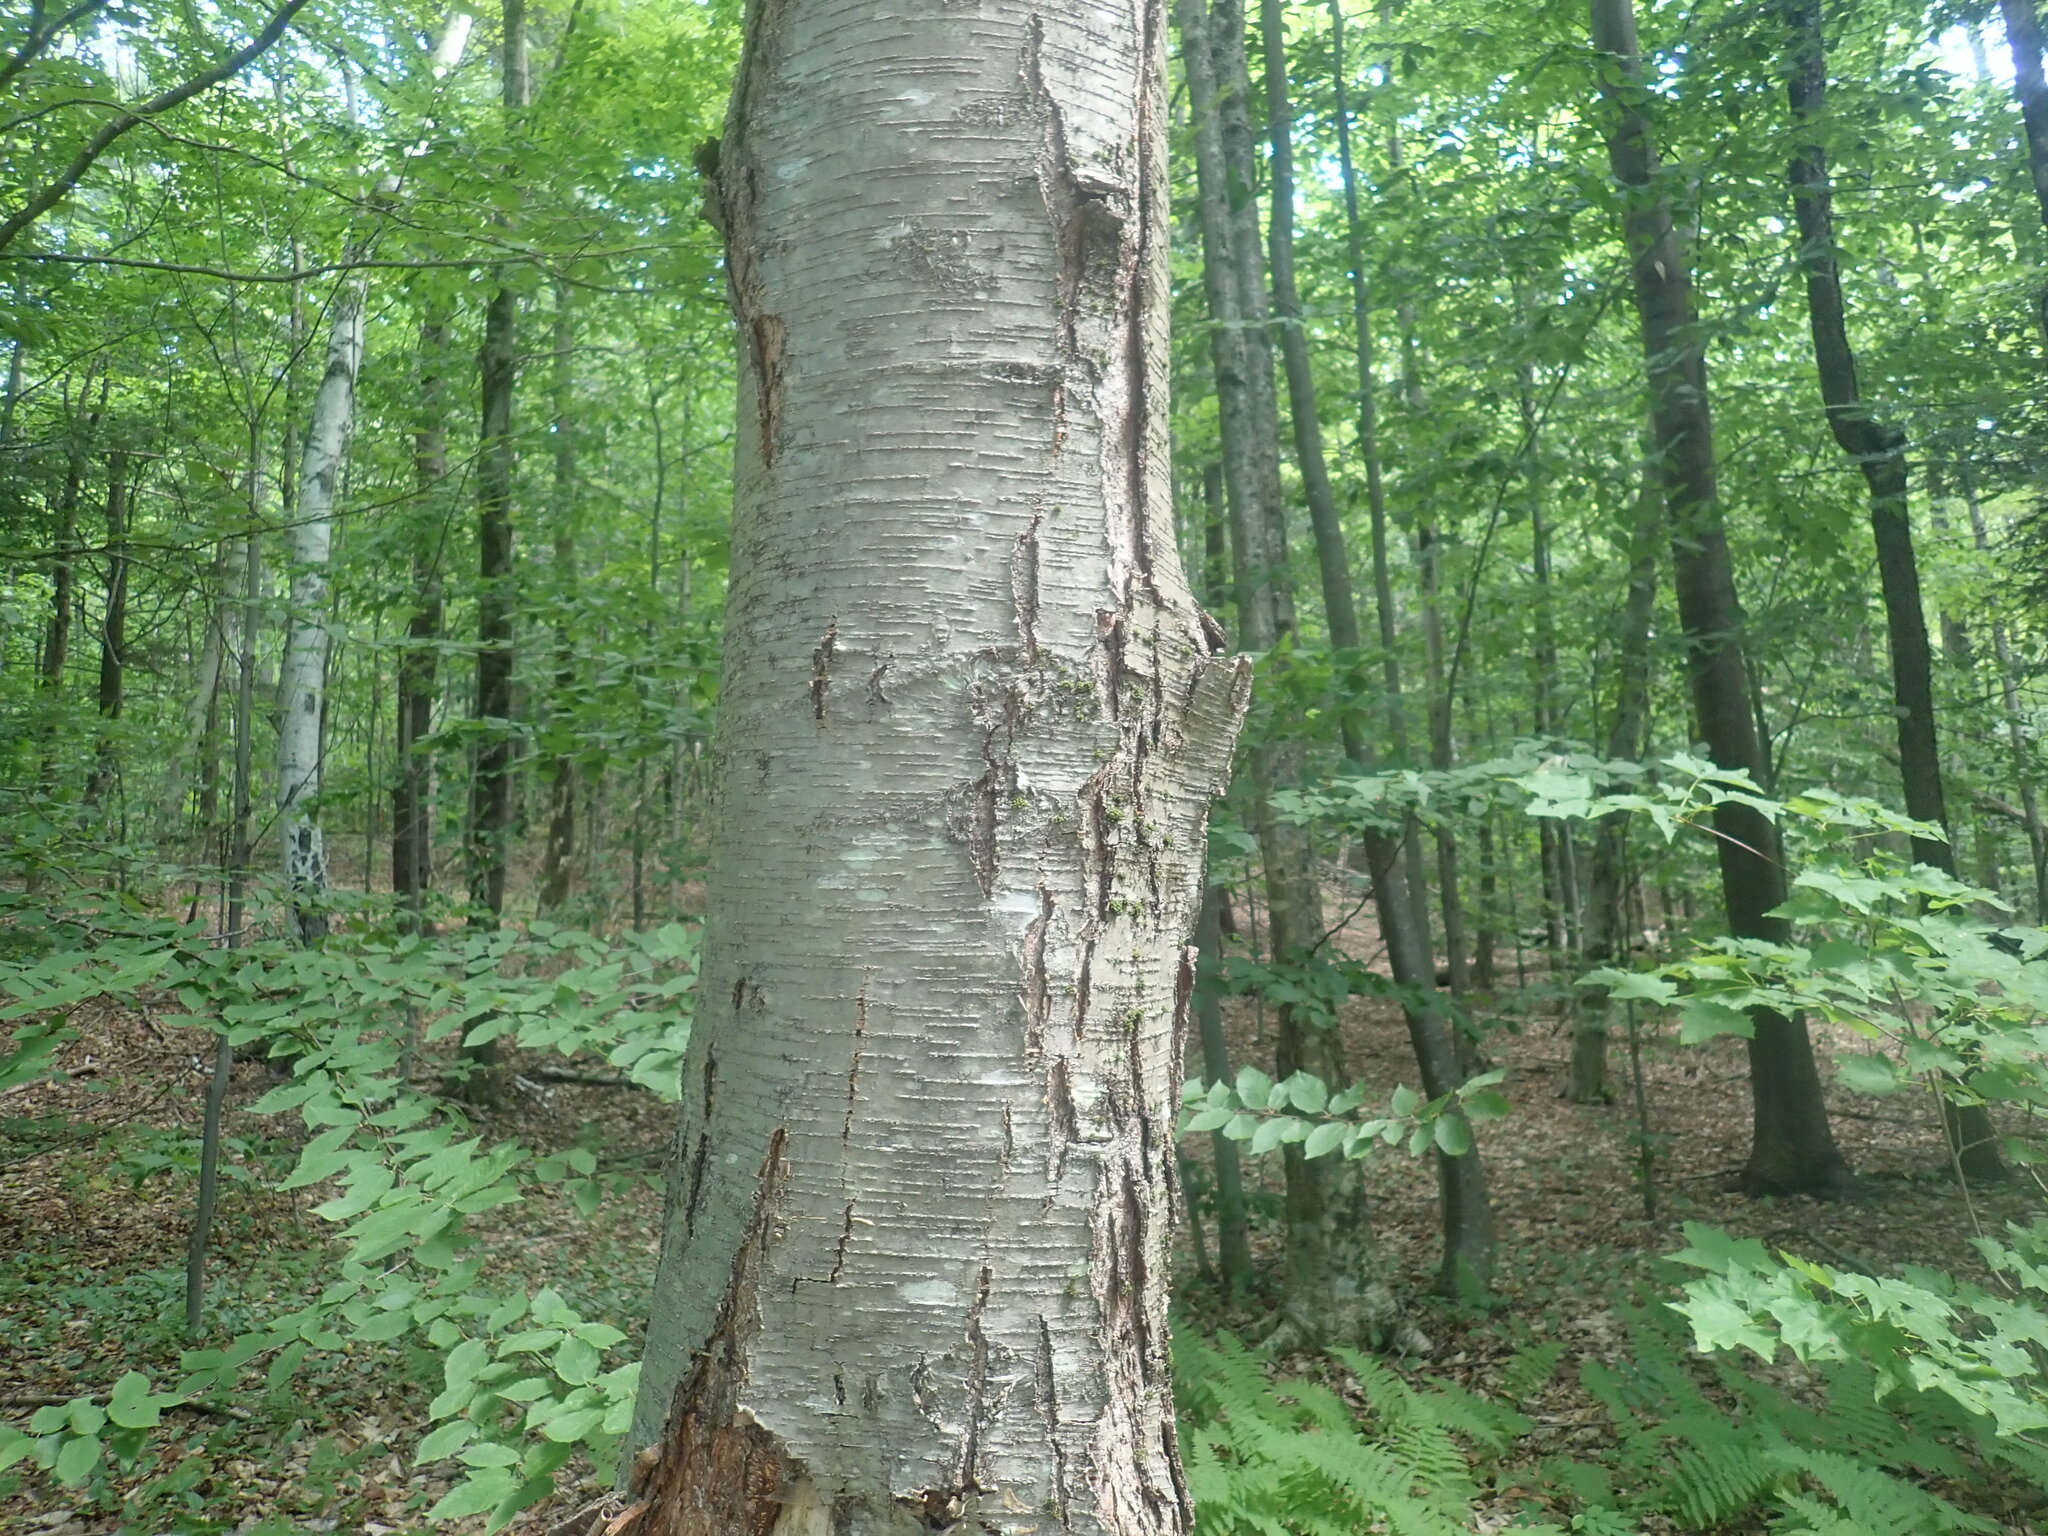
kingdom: Plantae
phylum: Tracheophyta
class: Magnoliopsida
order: Fagales
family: Betulaceae
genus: Betula
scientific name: Betula lenta
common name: Black birch
